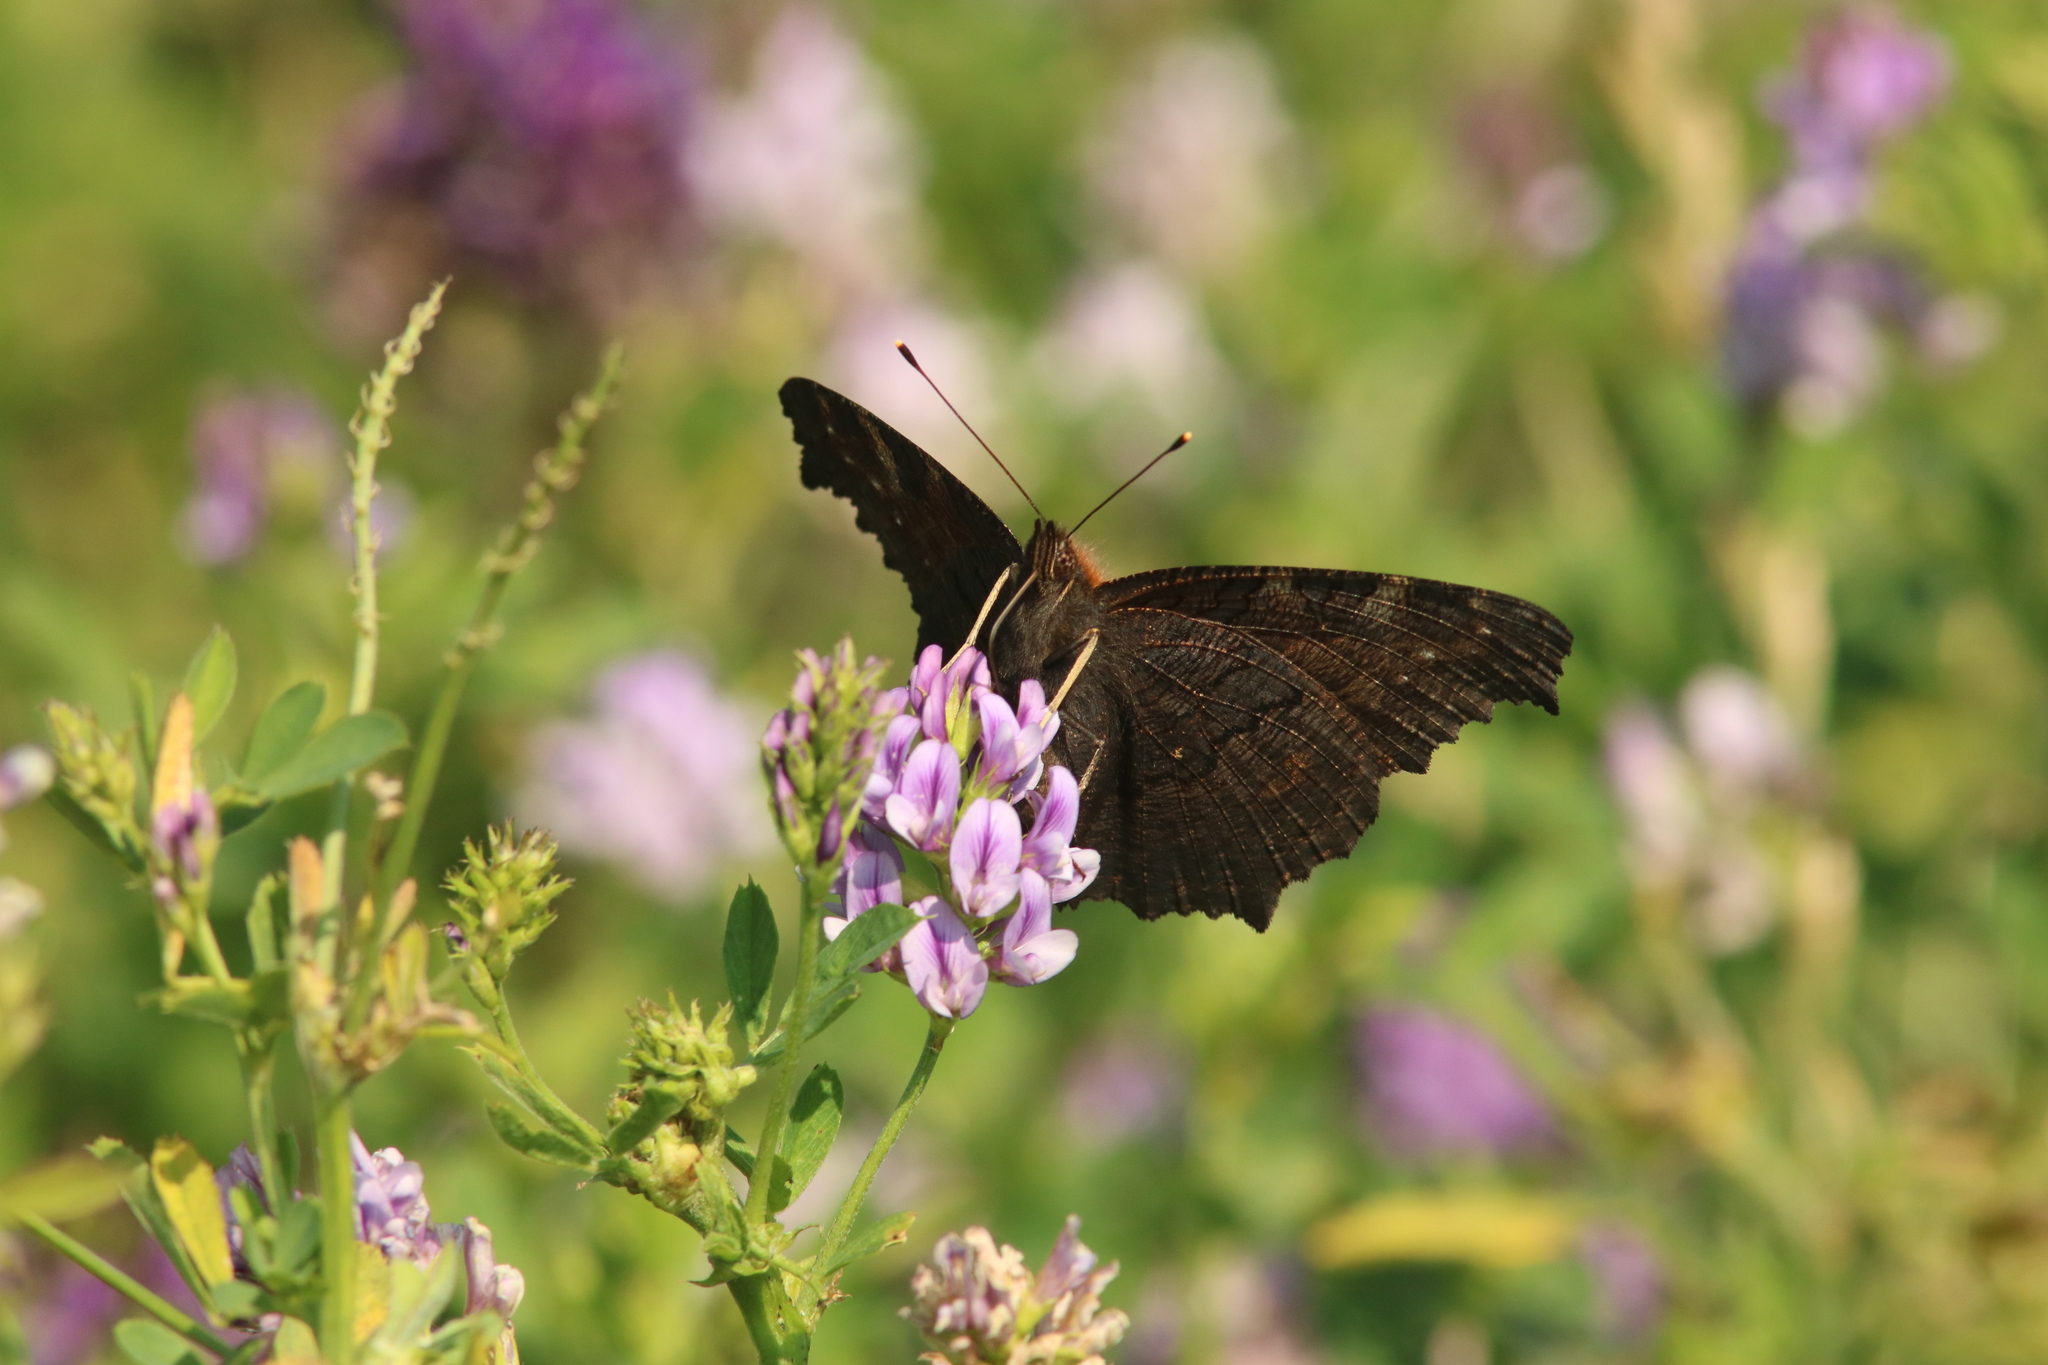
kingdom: Animalia
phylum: Arthropoda
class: Insecta
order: Lepidoptera
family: Nymphalidae
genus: Aglais
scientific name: Aglais io
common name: Peacock
